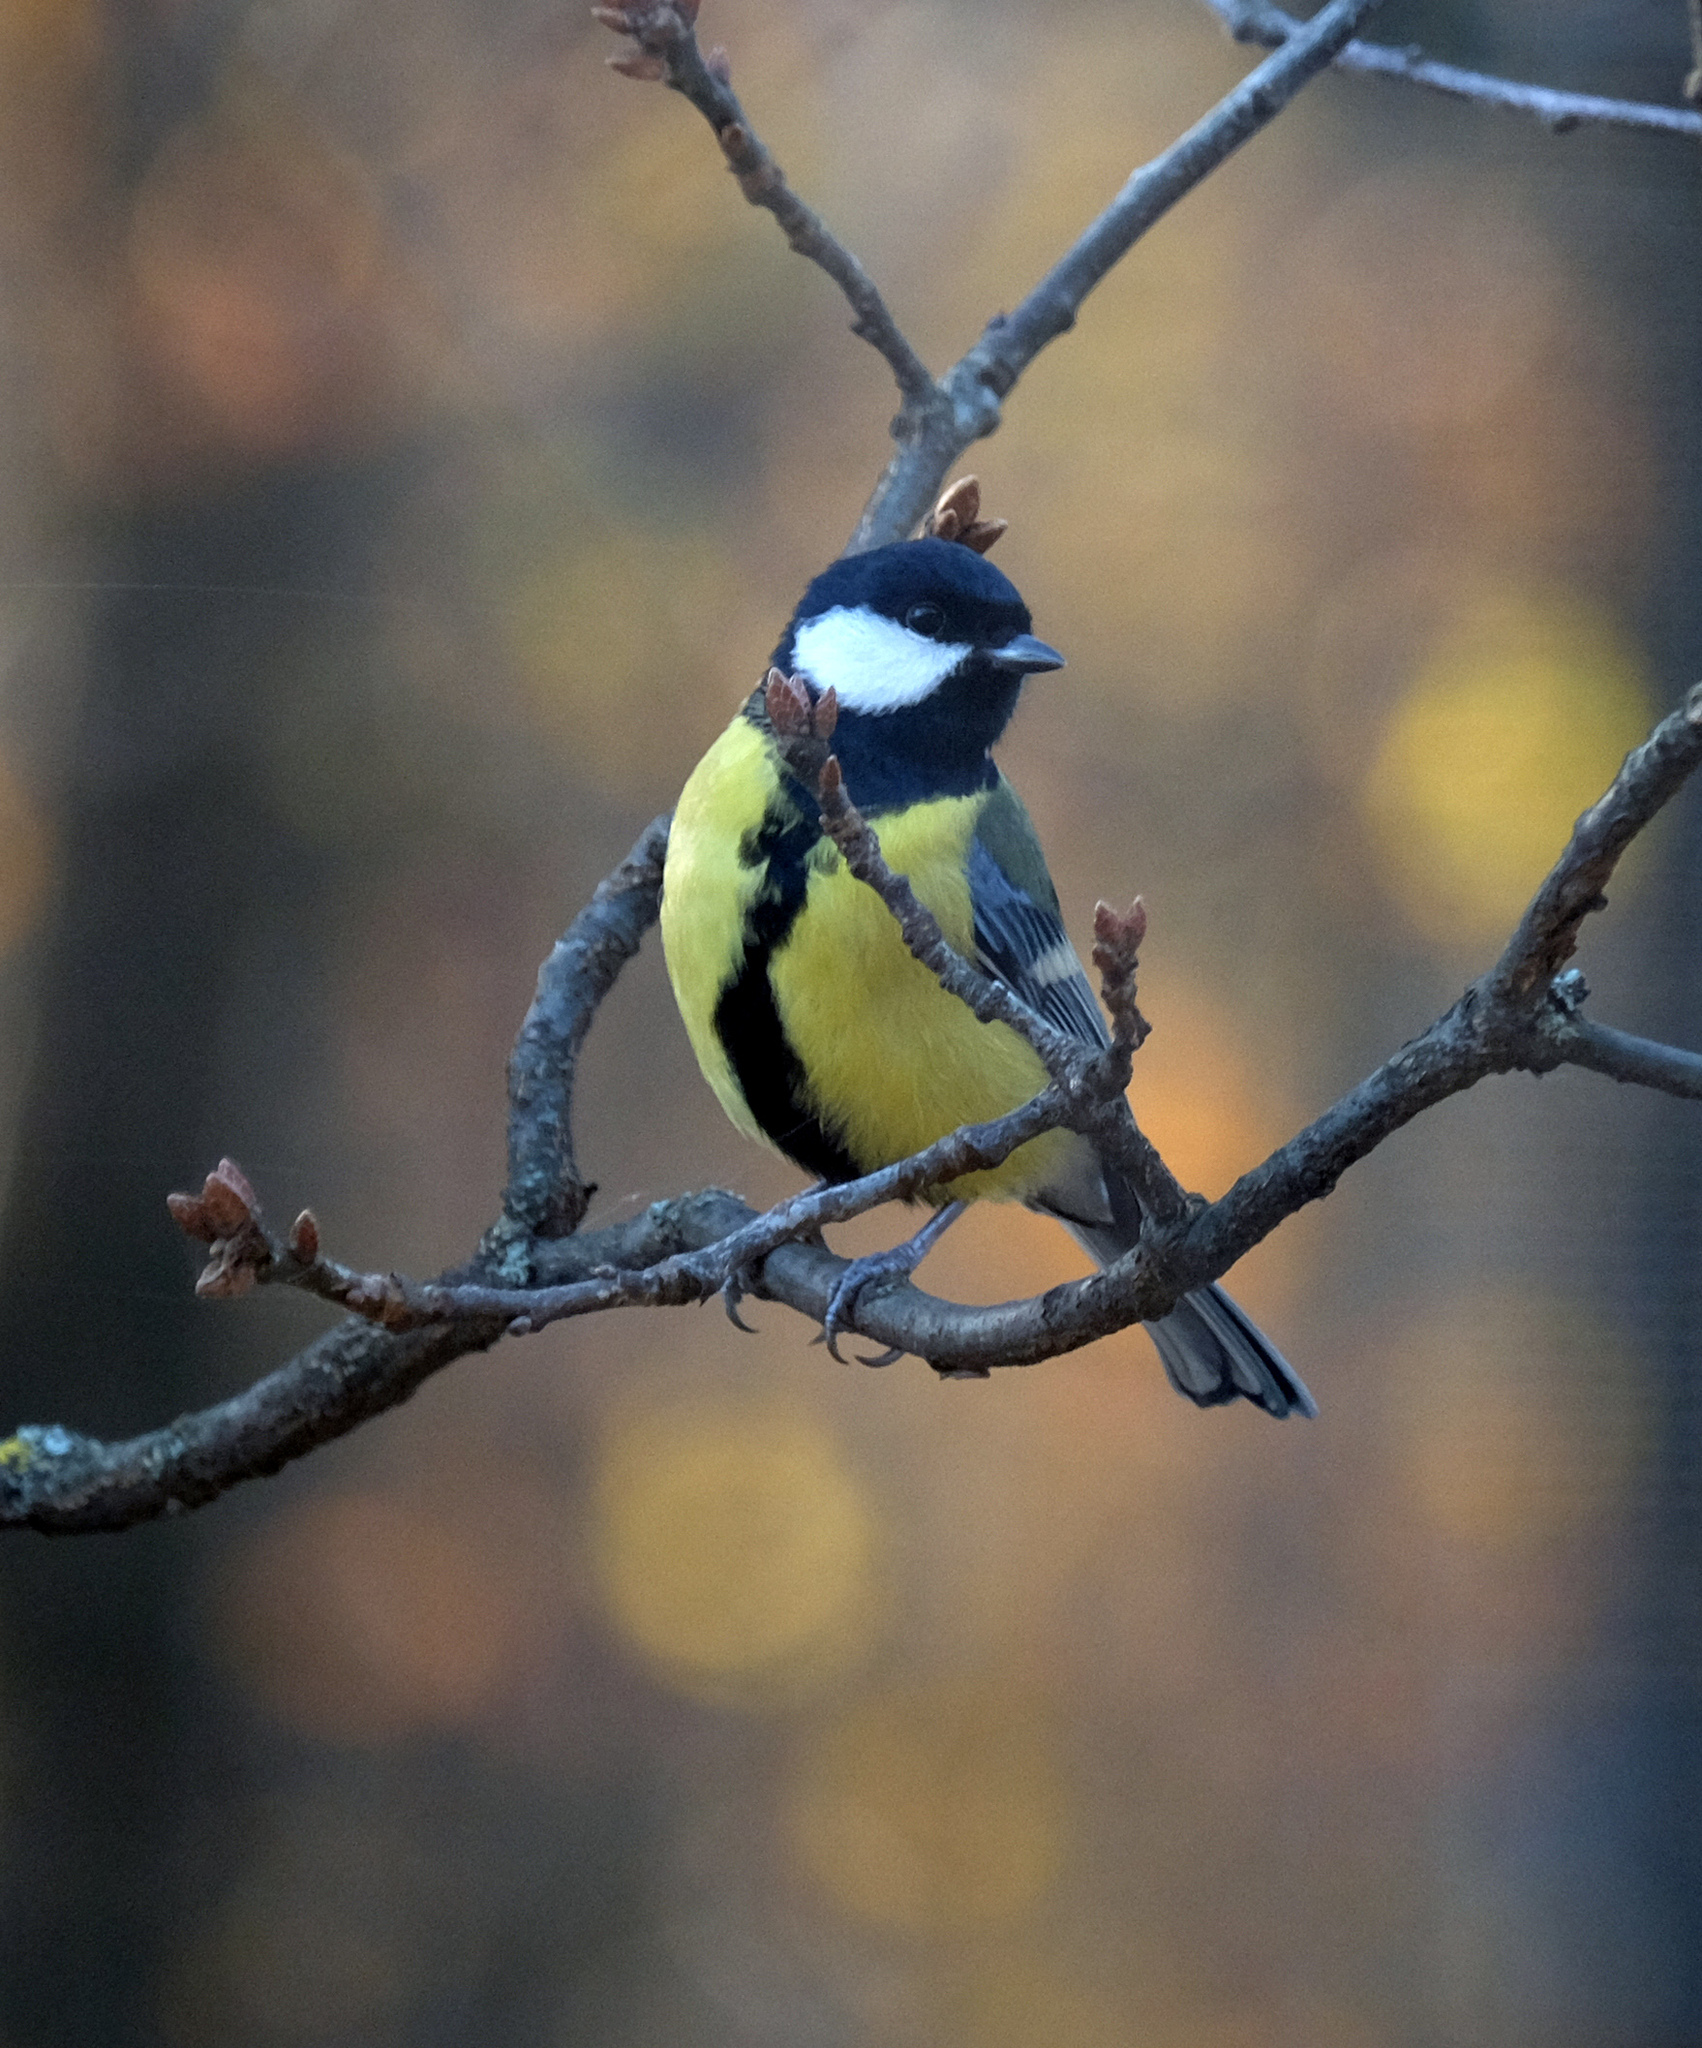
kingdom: Animalia
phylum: Chordata
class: Aves
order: Passeriformes
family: Paridae
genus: Parus
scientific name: Parus major
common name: Great tit
